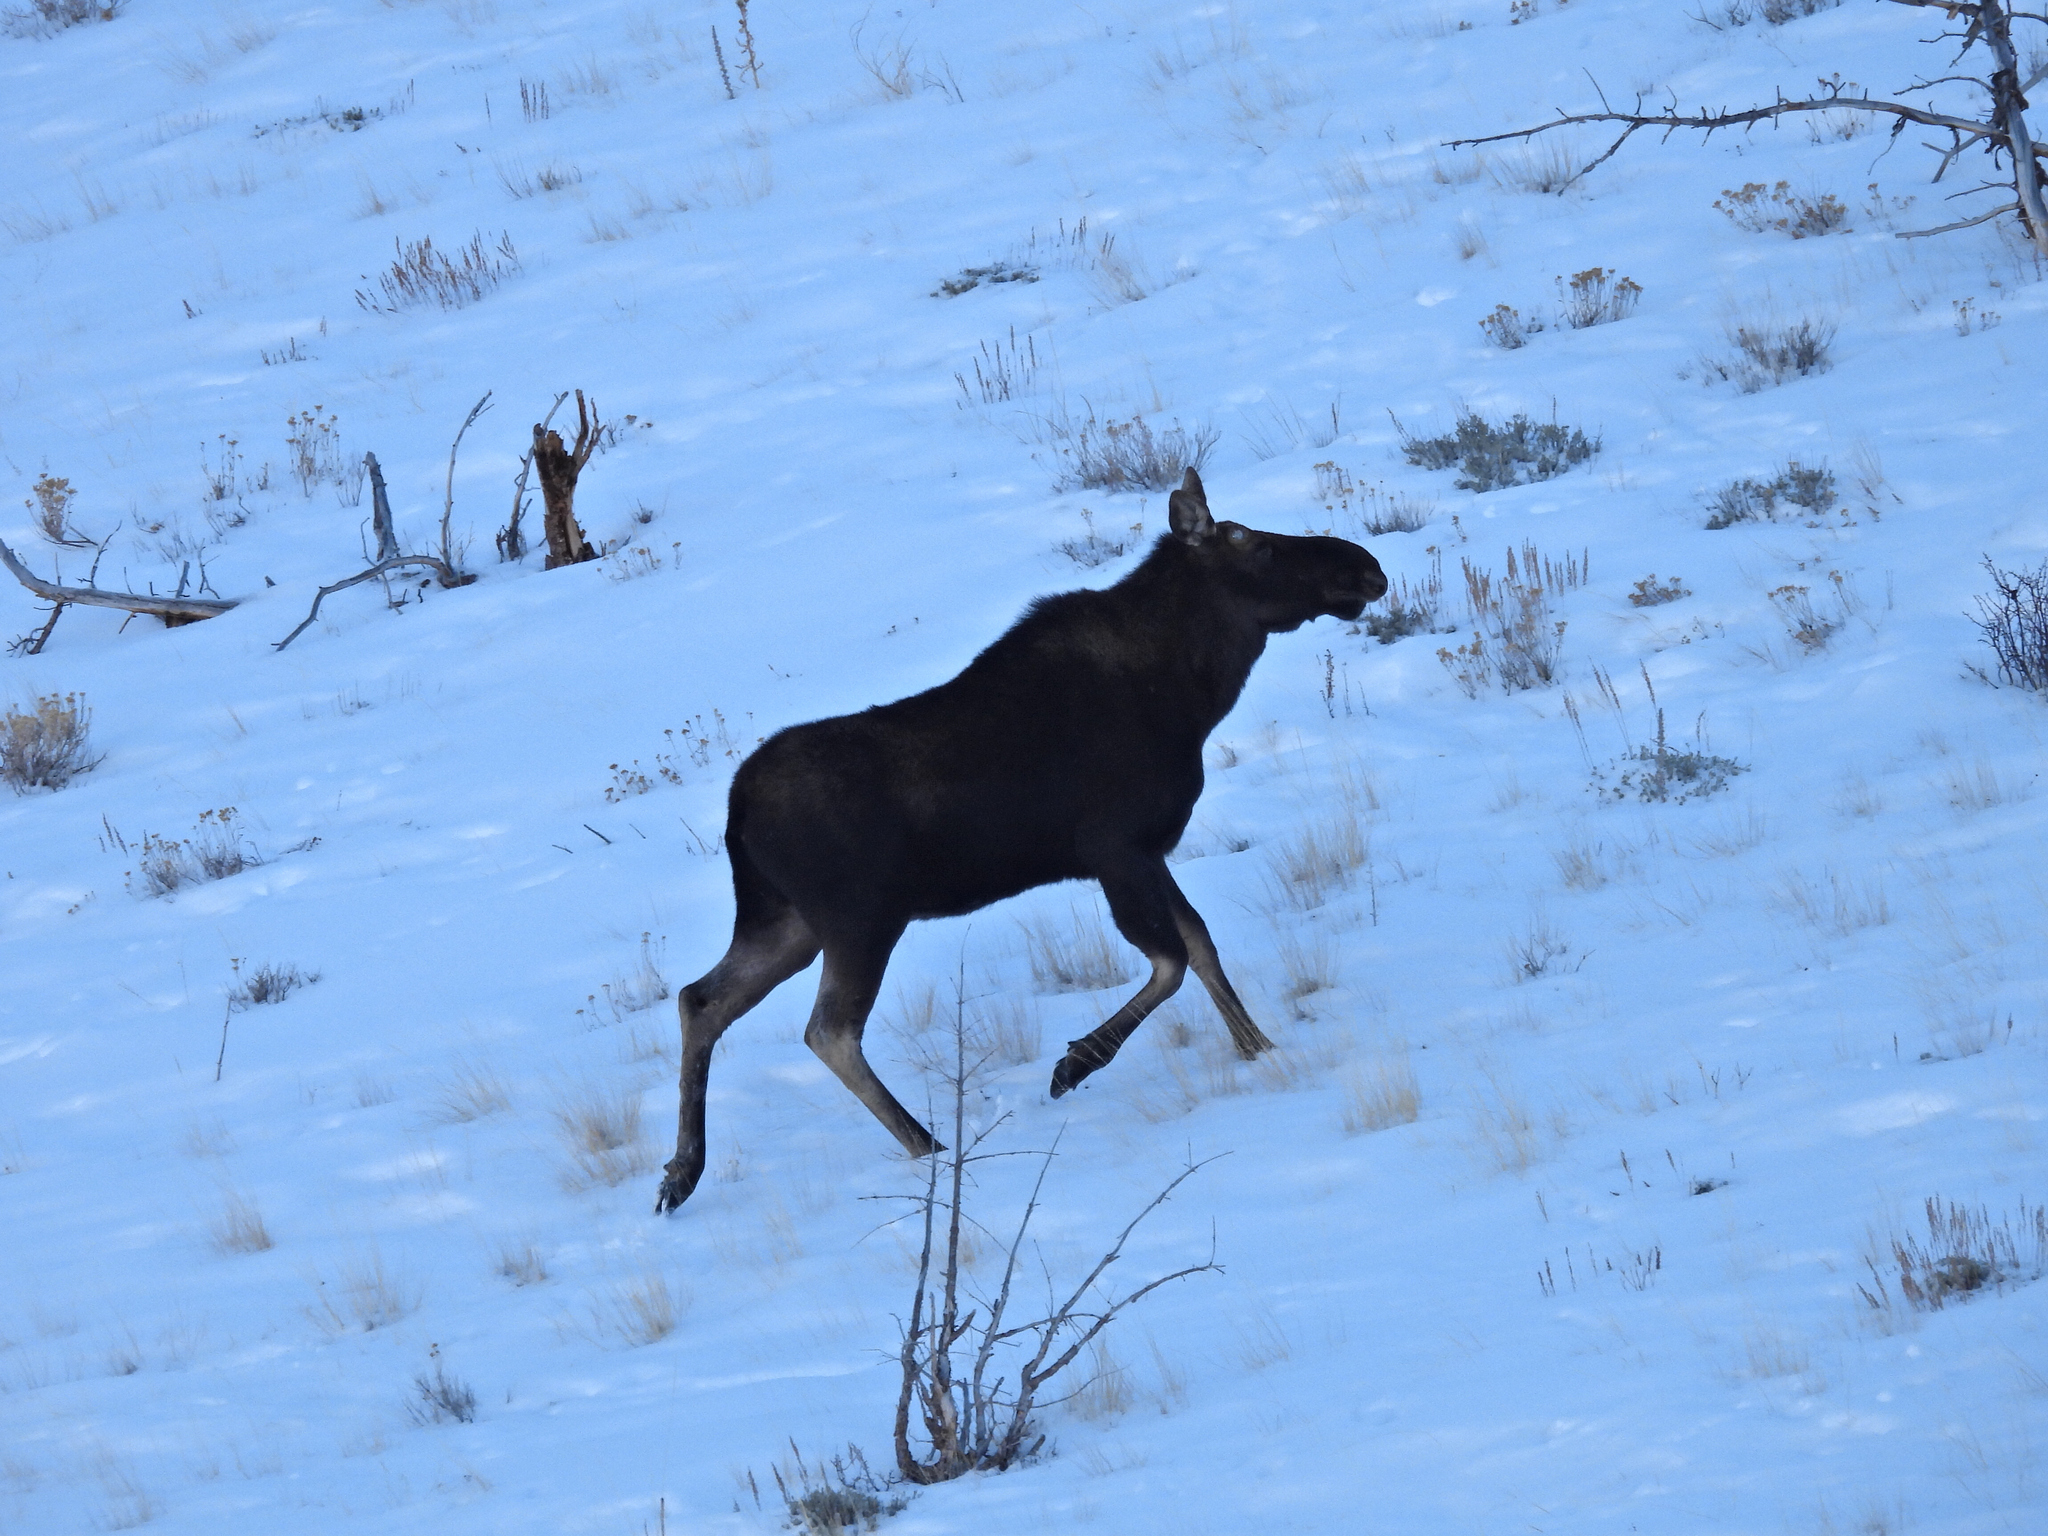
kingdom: Animalia
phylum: Chordata
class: Mammalia
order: Artiodactyla
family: Cervidae
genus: Alces
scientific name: Alces alces
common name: Moose
